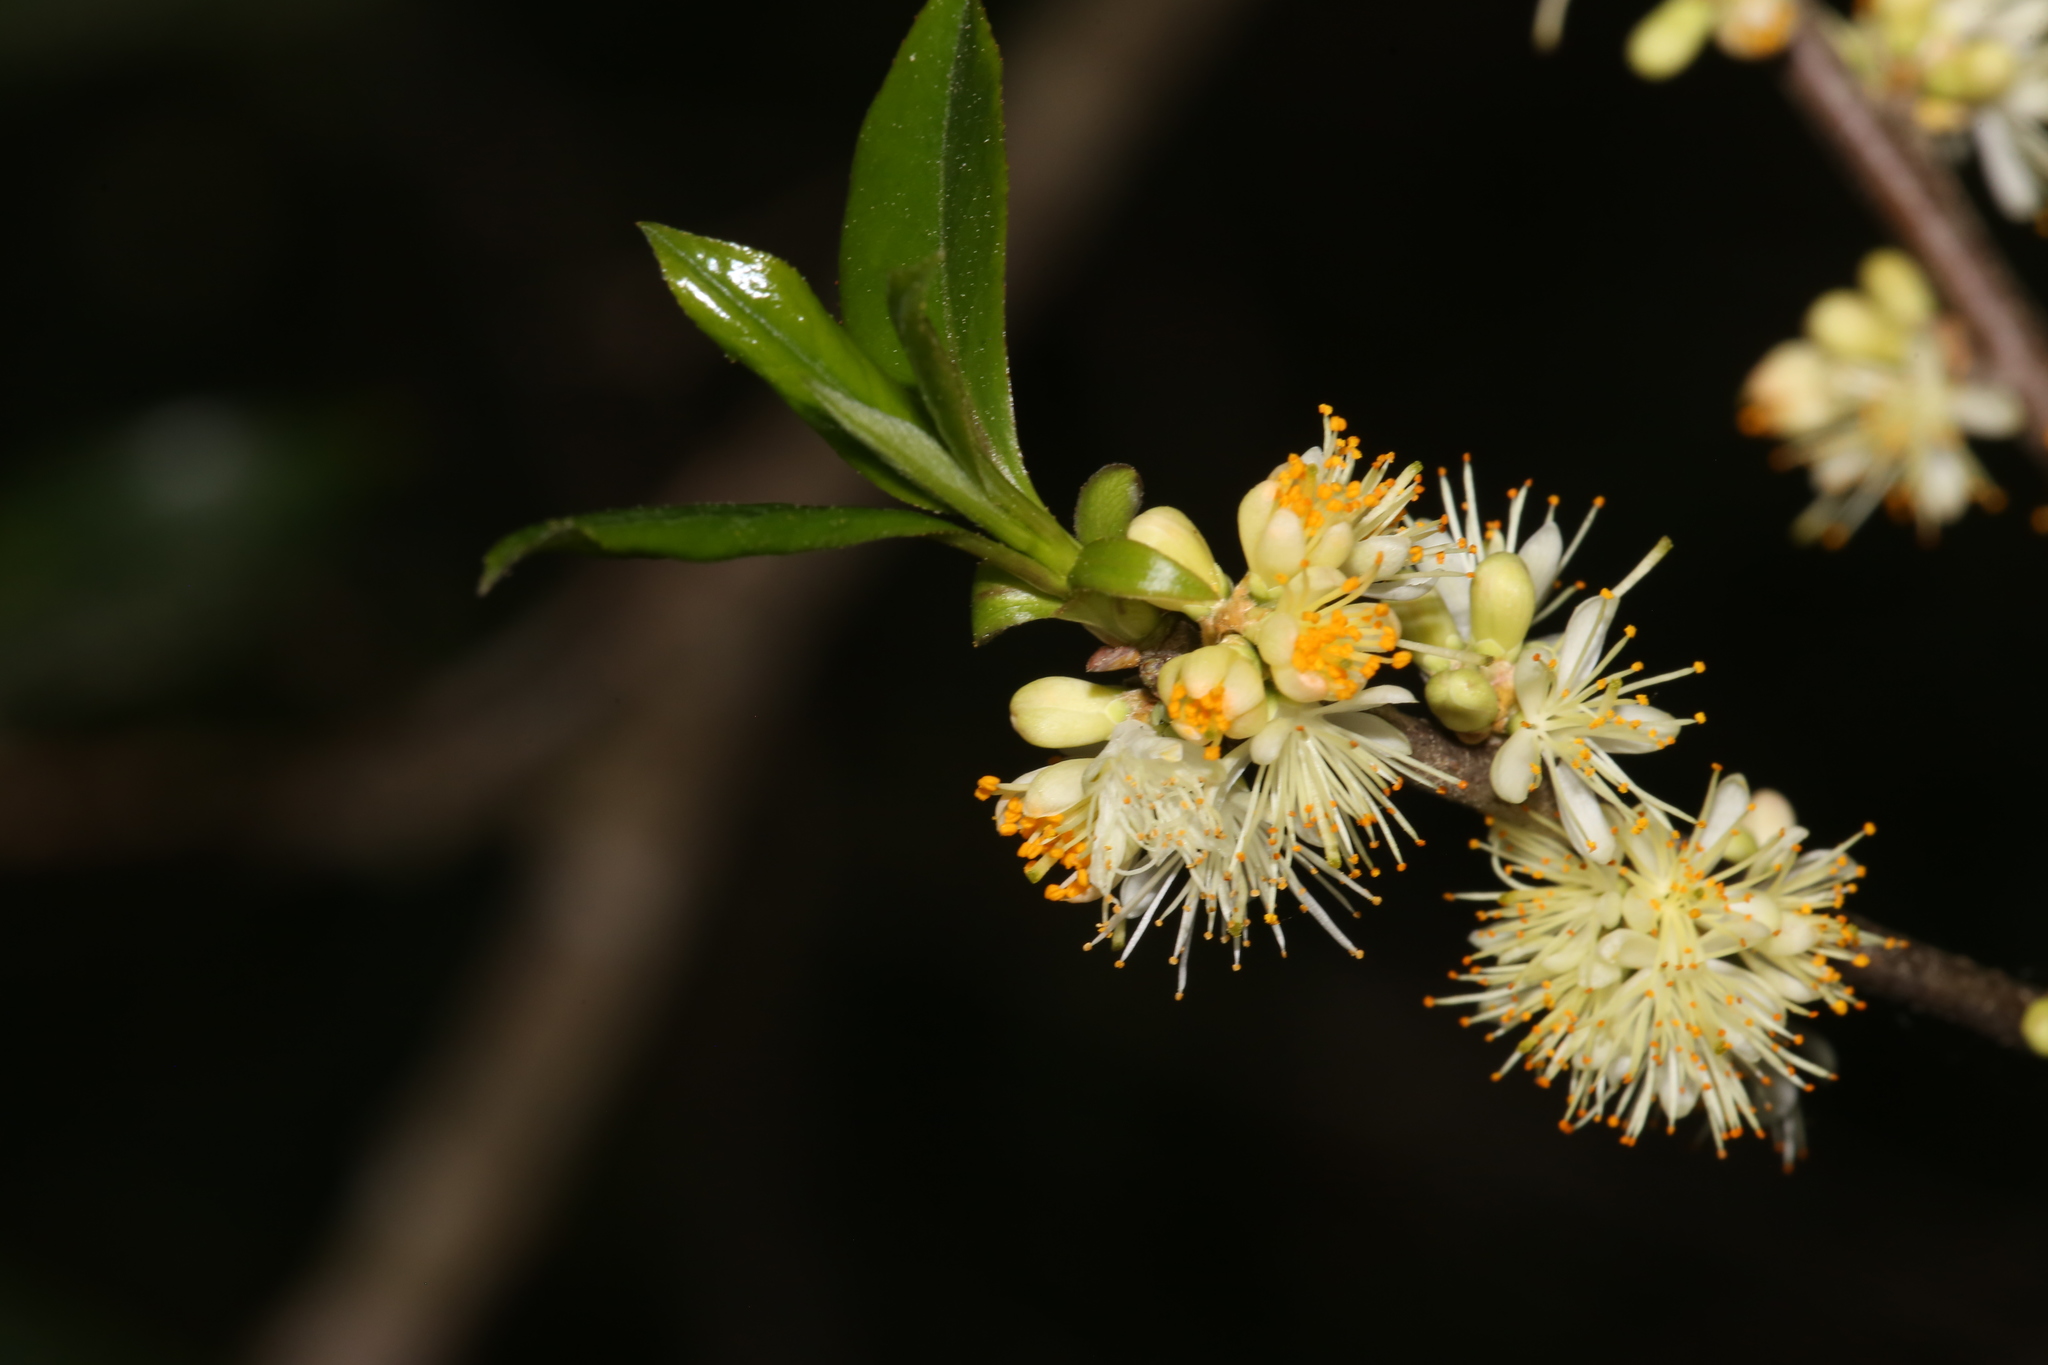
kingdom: Fungi
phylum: Basidiomycota
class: Exobasidiomycetes
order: Exobasidiales
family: Exobasidiaceae
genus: Exobasidium
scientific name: Exobasidium symploci
